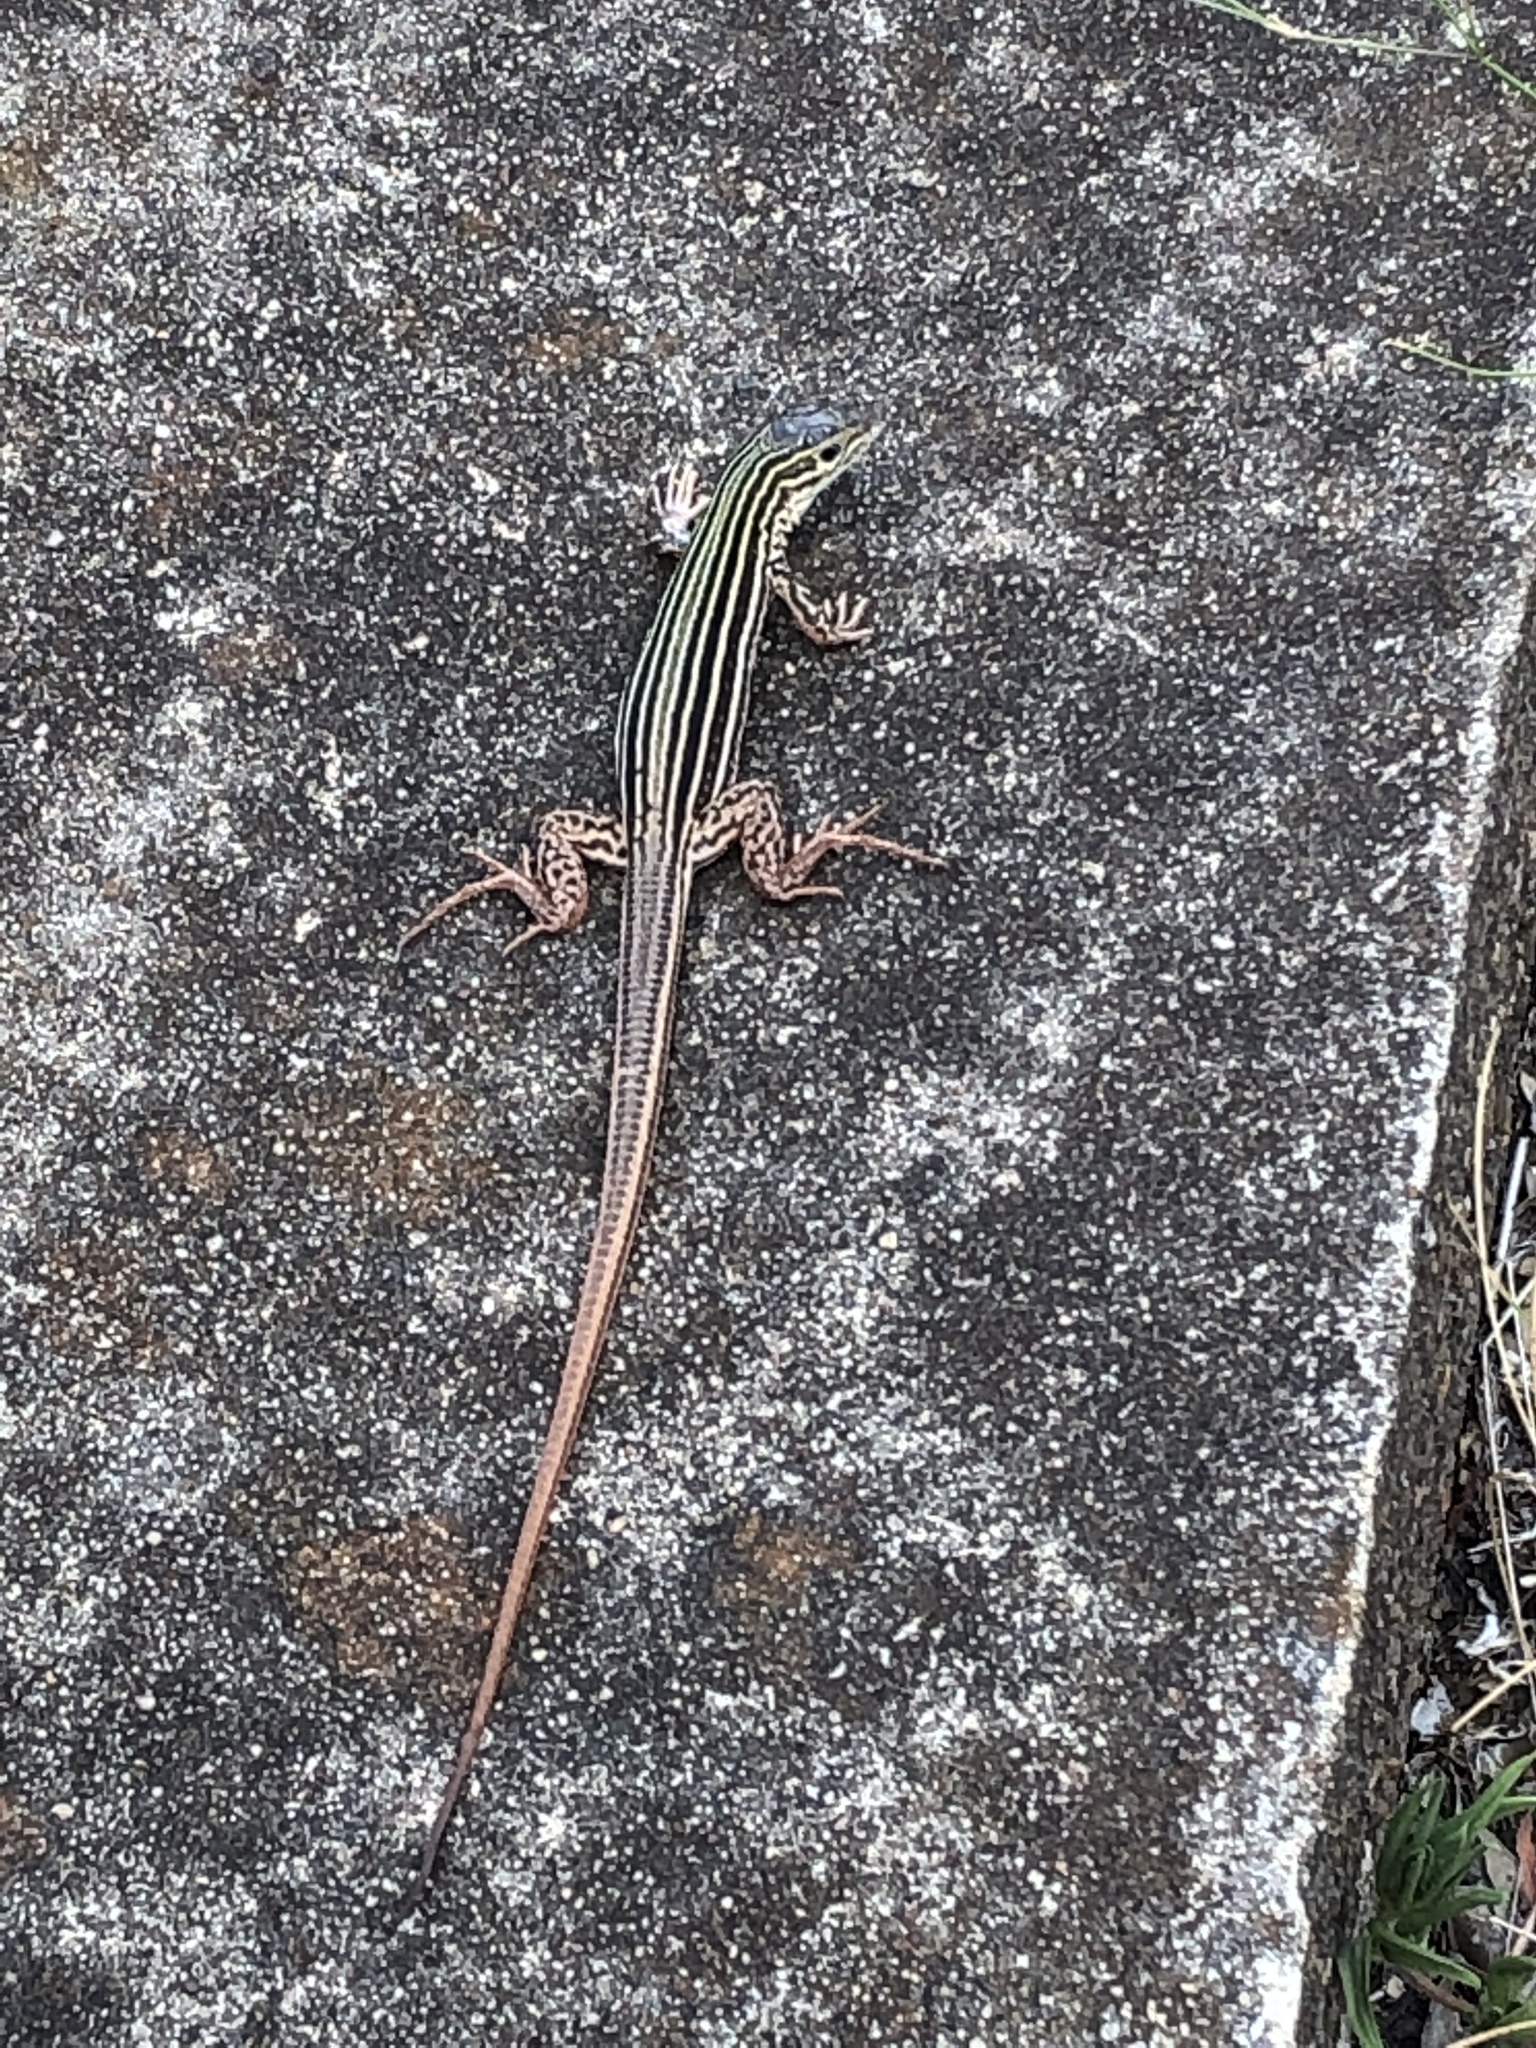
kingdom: Animalia
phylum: Chordata
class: Squamata
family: Teiidae
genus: Aspidoscelis
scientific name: Aspidoscelis gularis
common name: Eastern spotted whiptail
